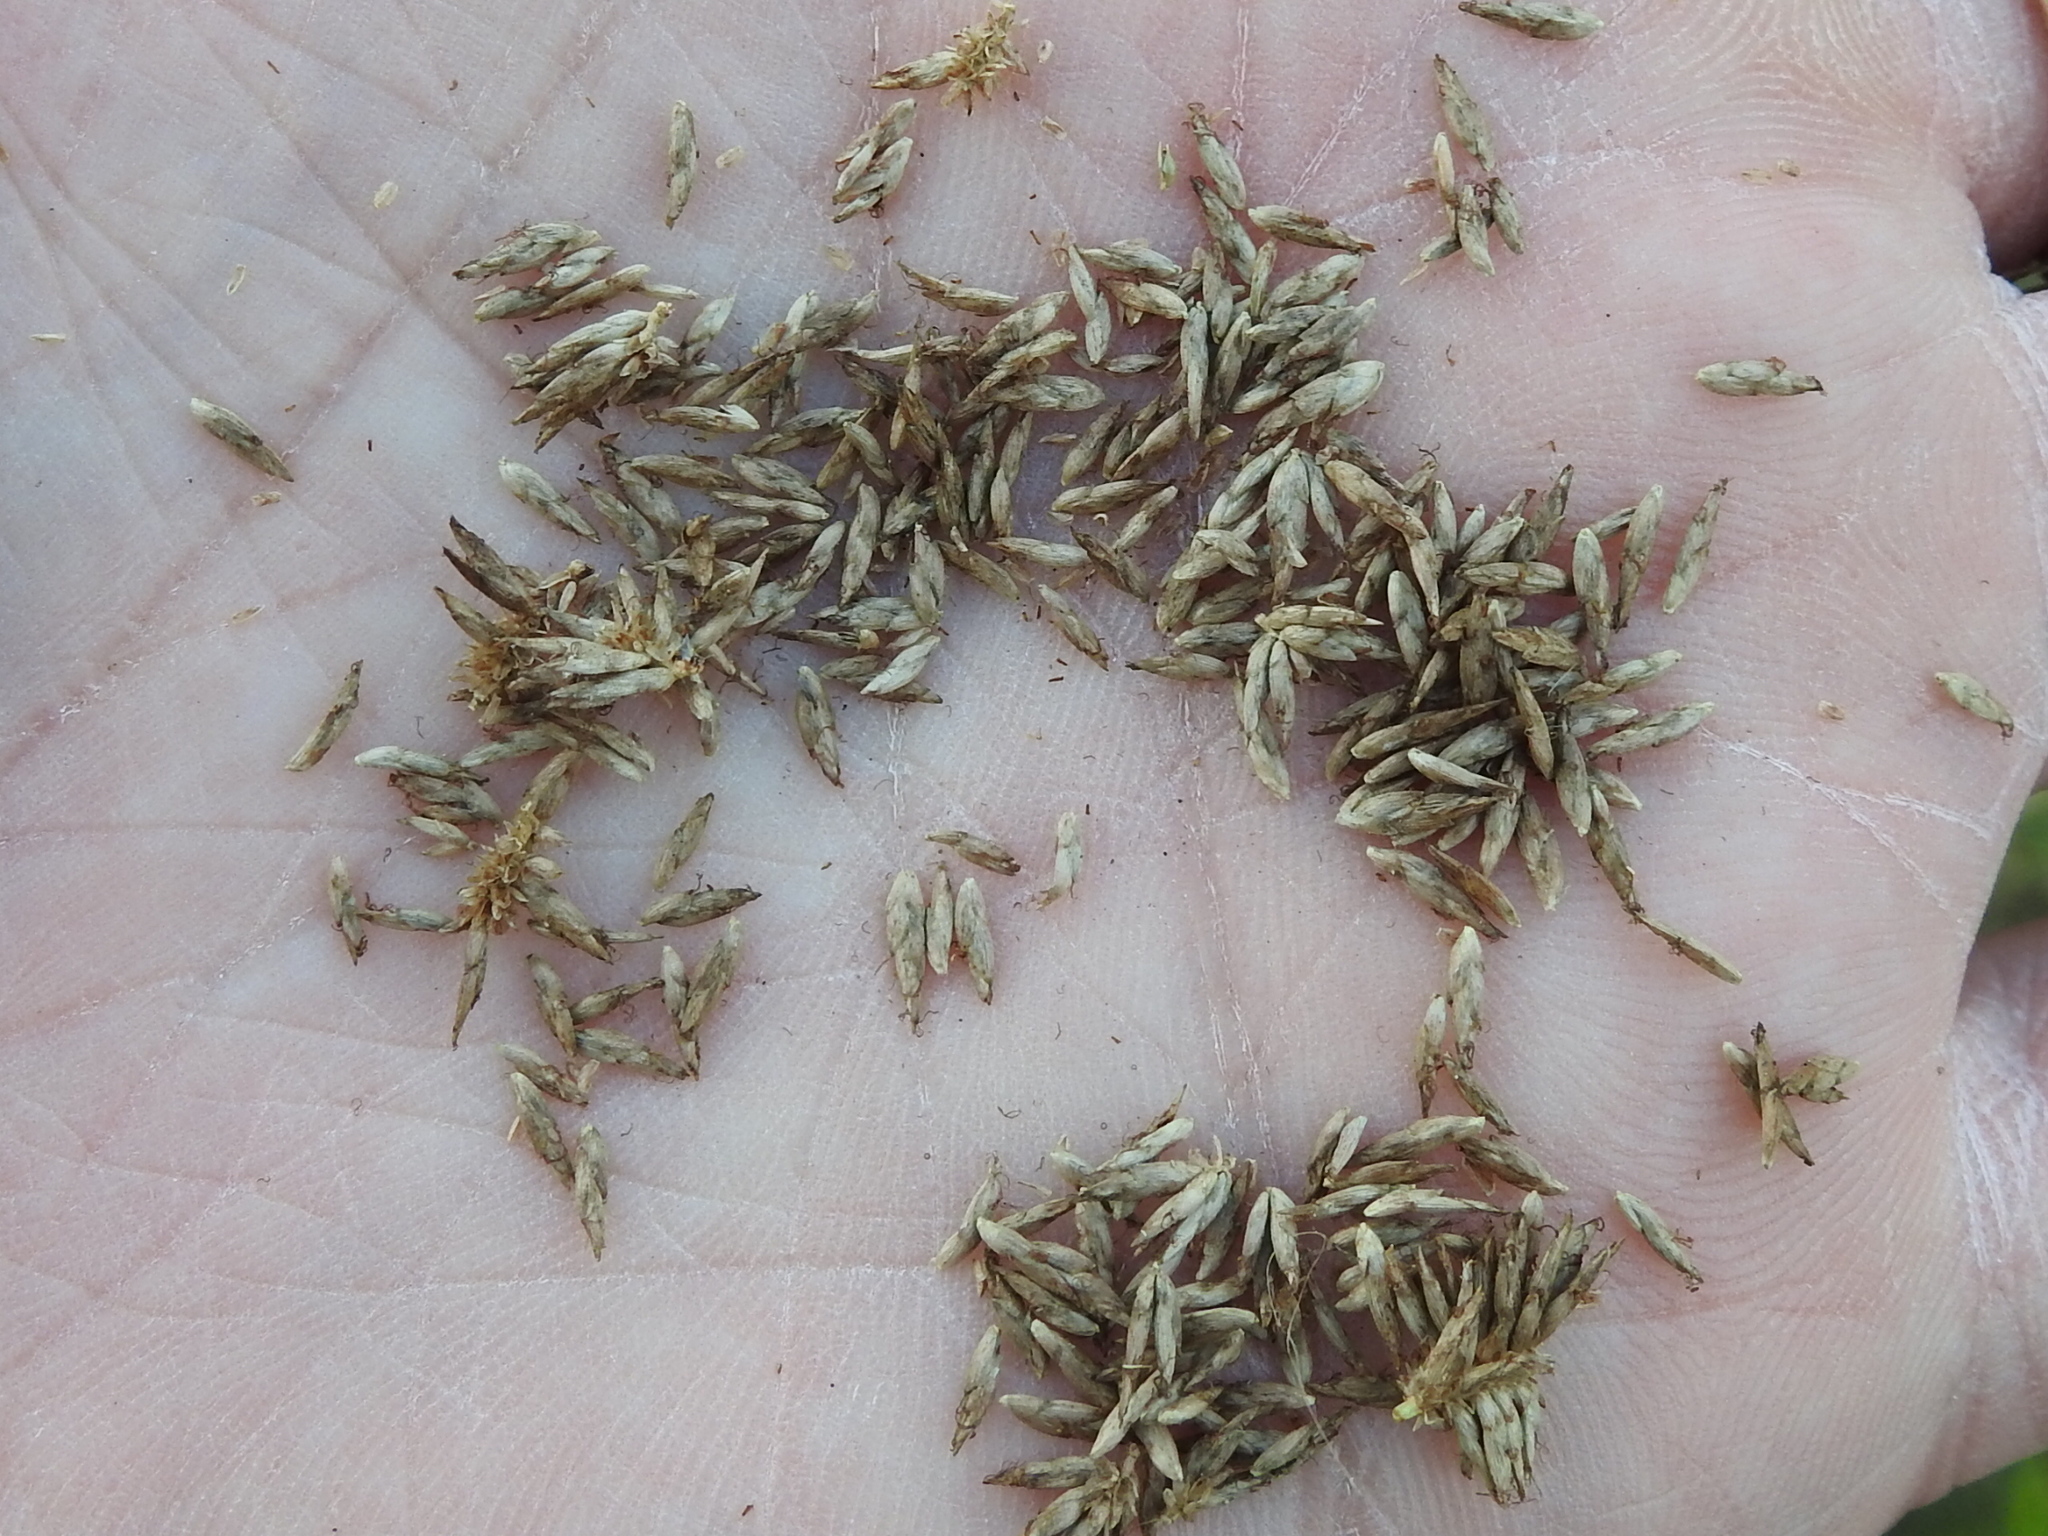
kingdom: Plantae
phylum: Tracheophyta
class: Liliopsida
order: Poales
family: Cyperaceae
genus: Cyperus
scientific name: Cyperus ligularis
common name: Swamp flat sedge
